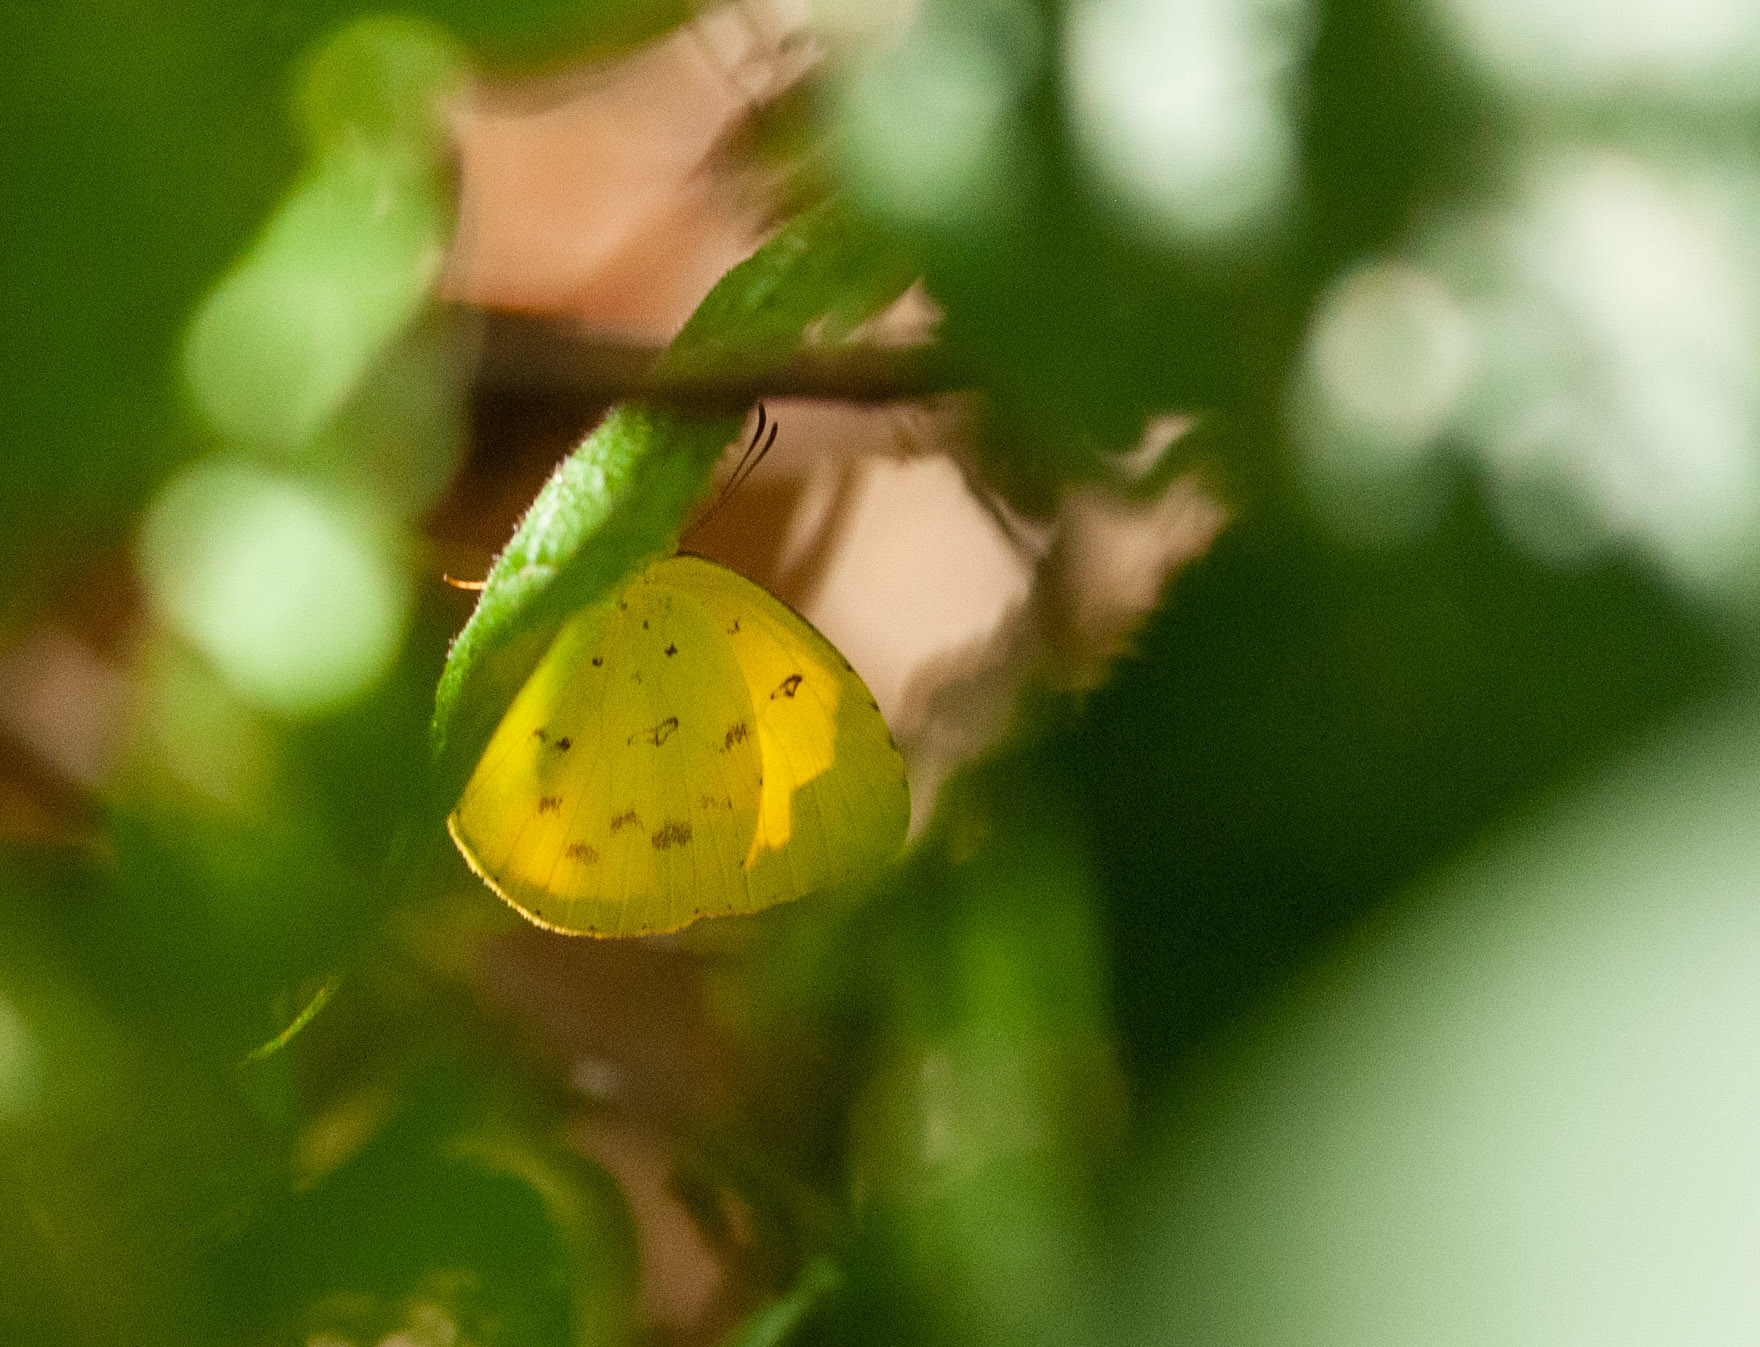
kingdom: Animalia
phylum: Arthropoda
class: Insecta
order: Lepidoptera
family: Pieridae
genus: Eurema
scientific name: Eurema hecabe
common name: Pale grass yellow
